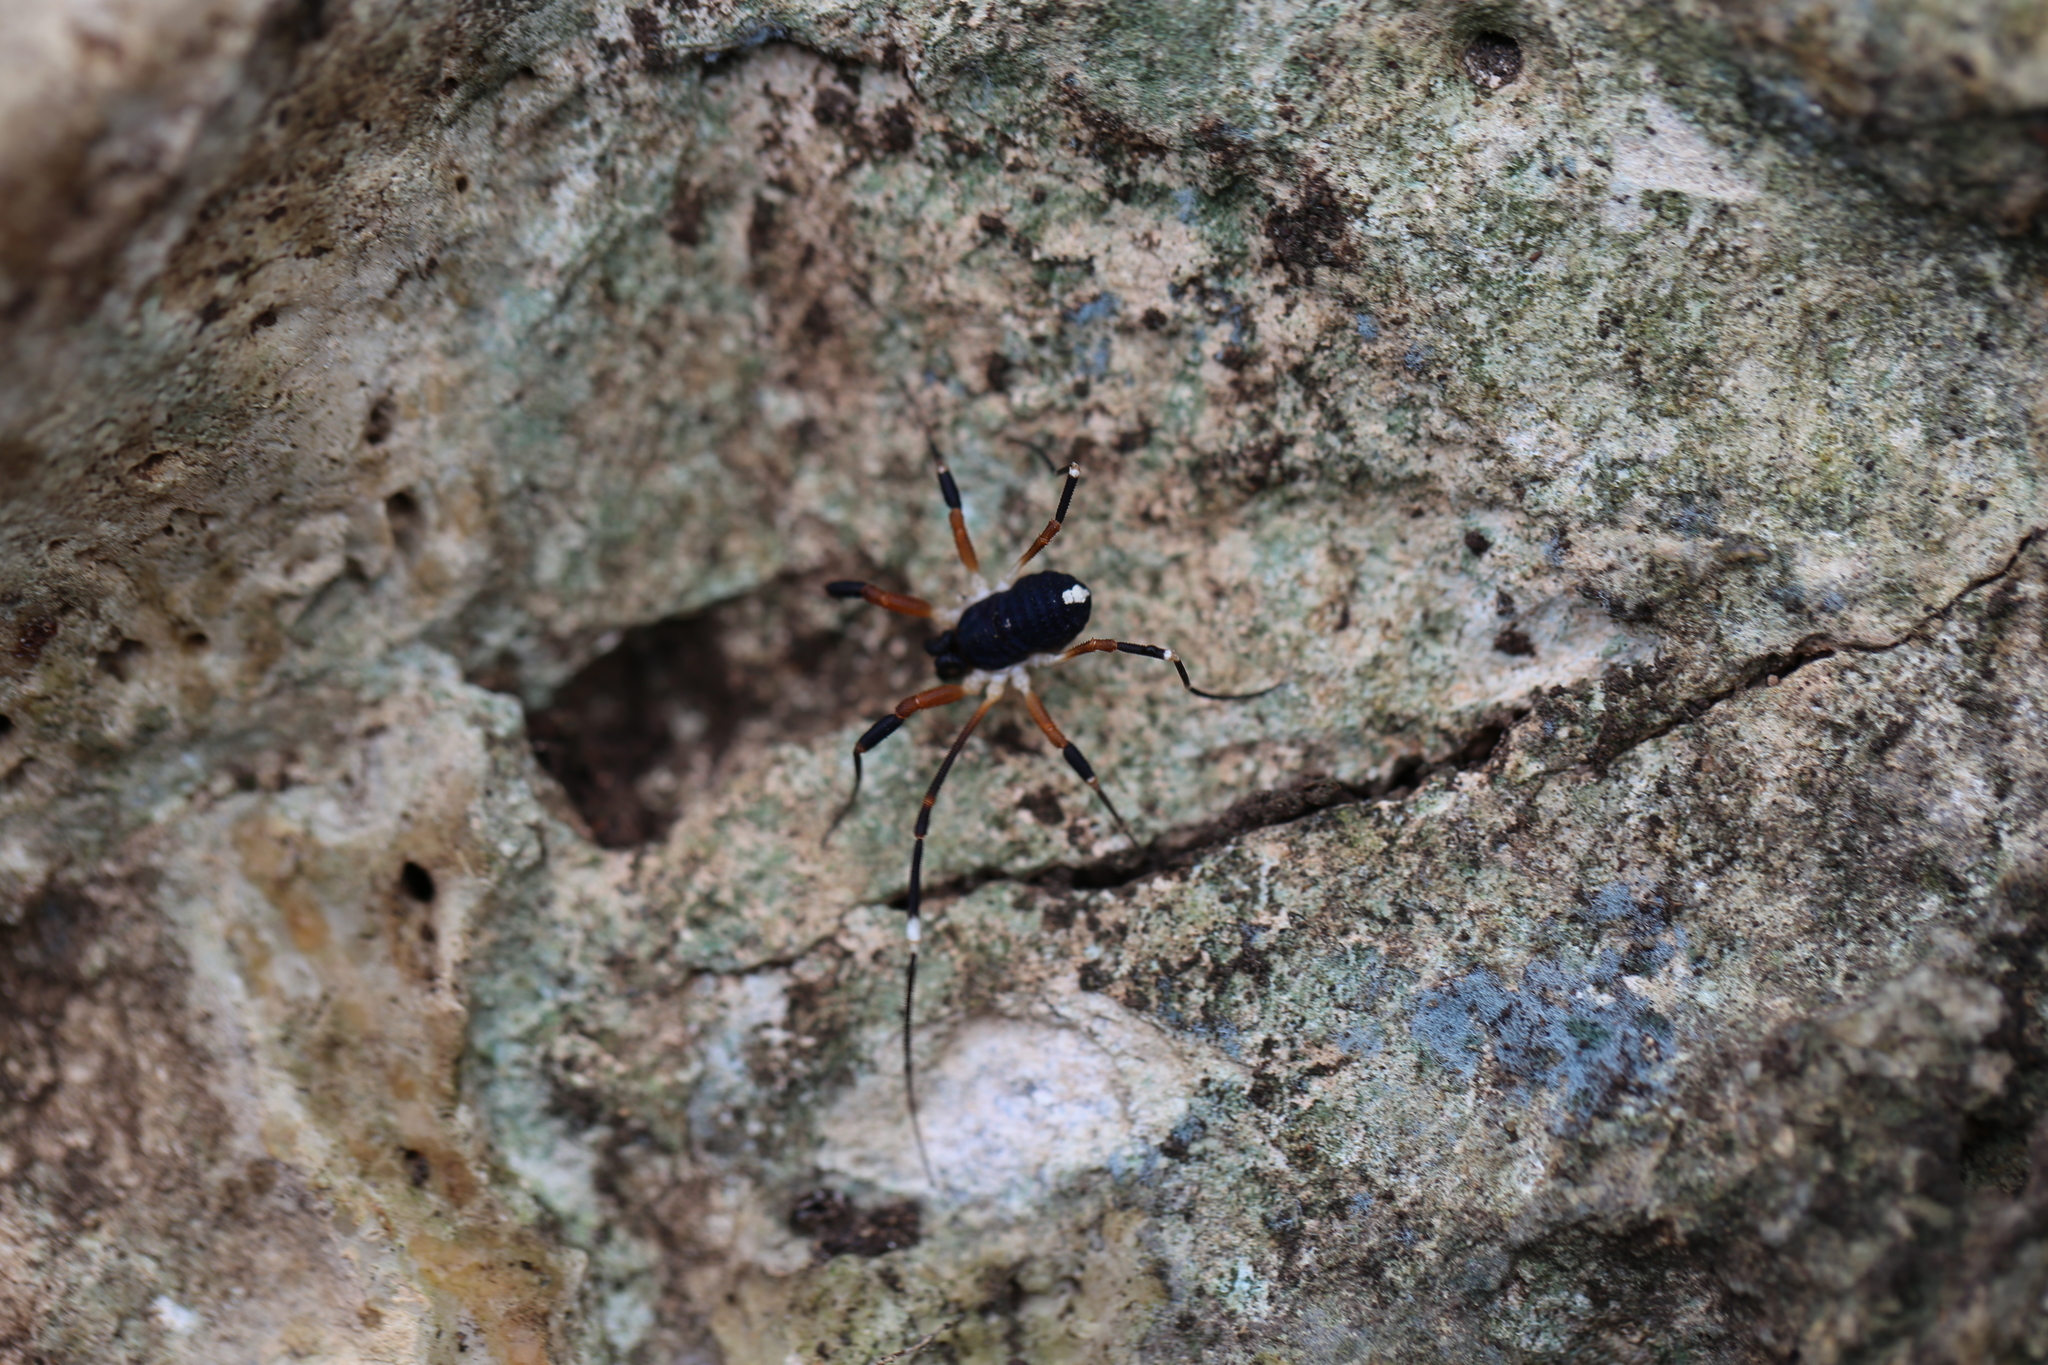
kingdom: Animalia
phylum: Arthropoda
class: Arachnida
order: Opiliones
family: Globipedidae
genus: Dalquestia
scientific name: Dalquestia formosa
